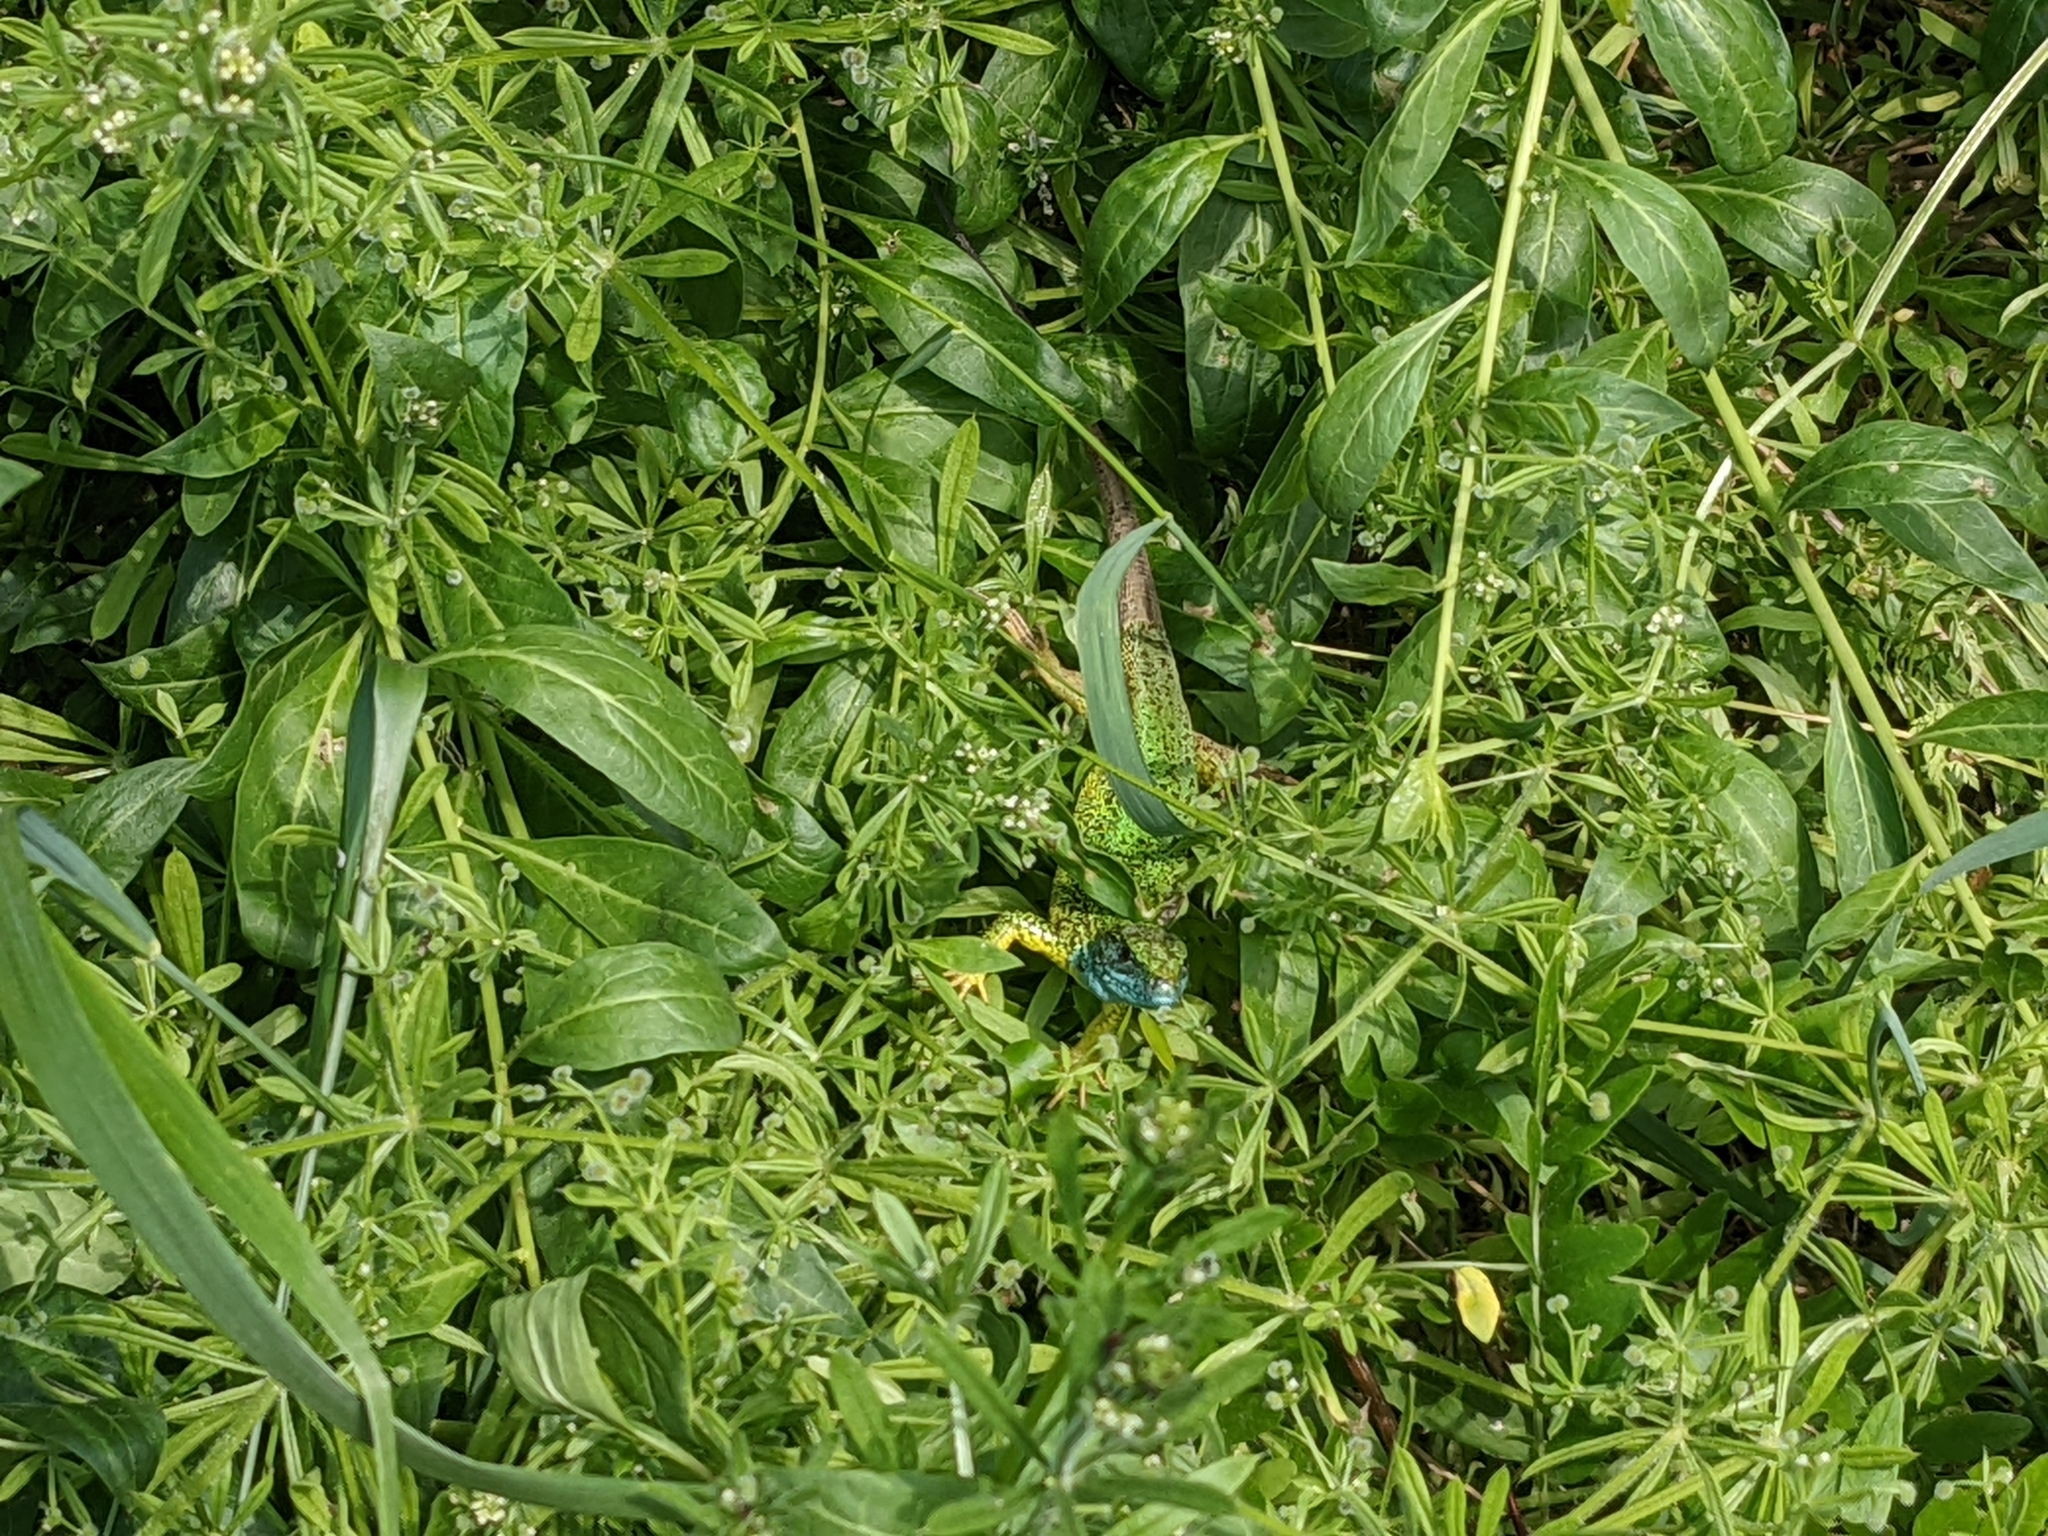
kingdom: Animalia
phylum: Chordata
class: Squamata
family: Lacertidae
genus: Lacerta
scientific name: Lacerta viridis
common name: European green lizard
